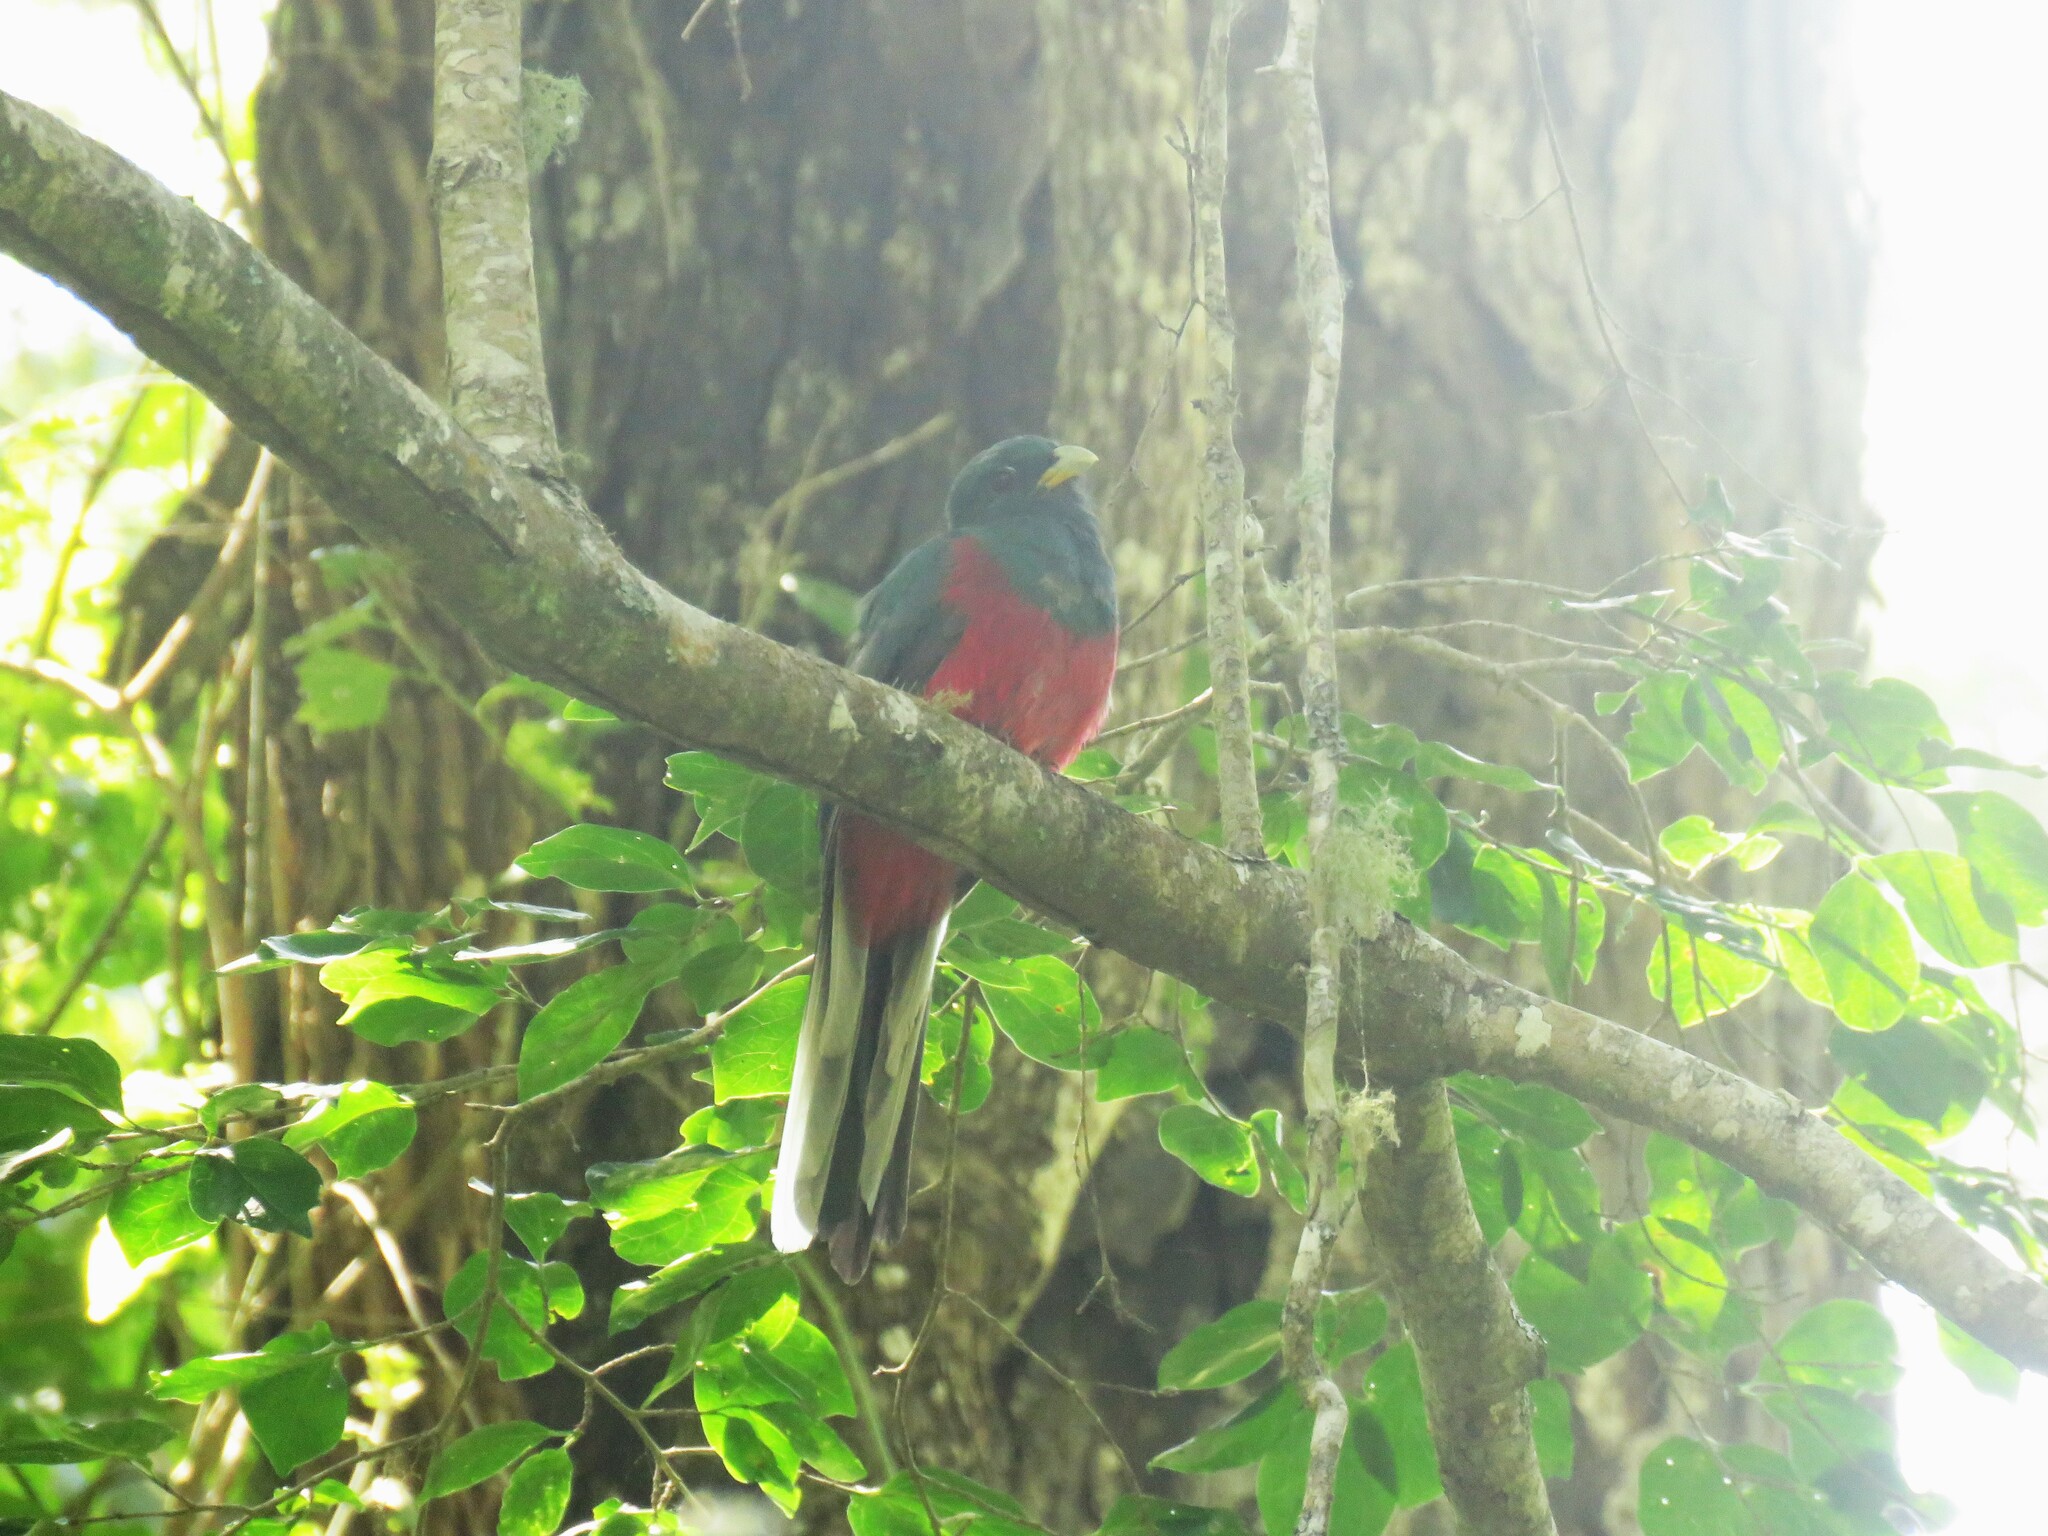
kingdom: Animalia
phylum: Chordata
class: Aves
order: Trogoniformes
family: Trogonidae
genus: Apaloderma
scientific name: Apaloderma narina
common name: Narina trogon
